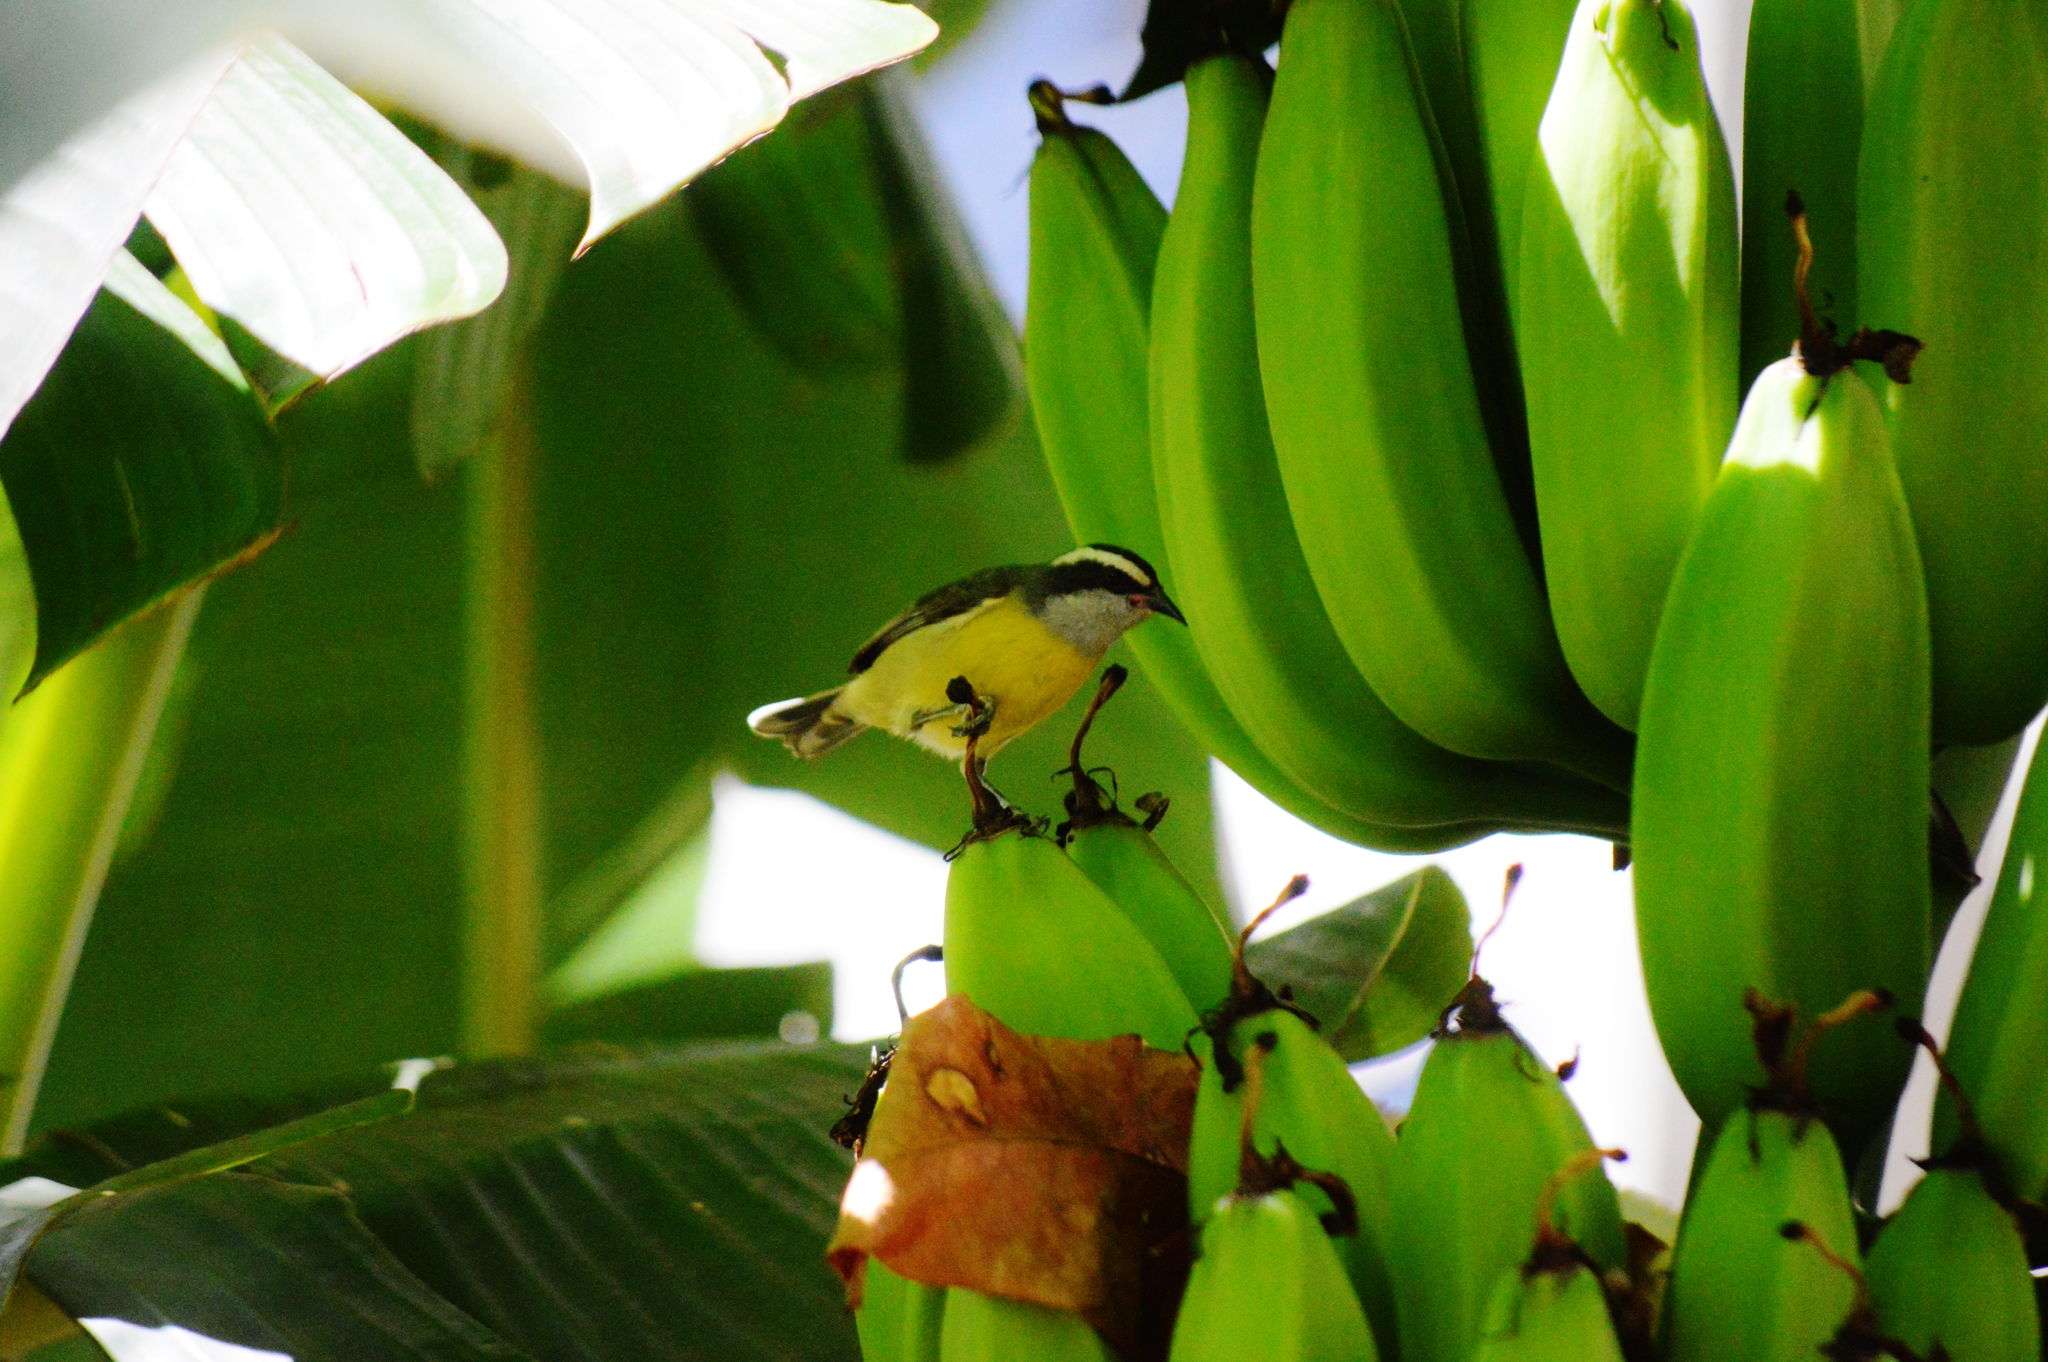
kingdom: Animalia
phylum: Chordata
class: Aves
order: Passeriformes
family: Thraupidae
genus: Coereba
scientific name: Coereba flaveola
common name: Bananaquit
